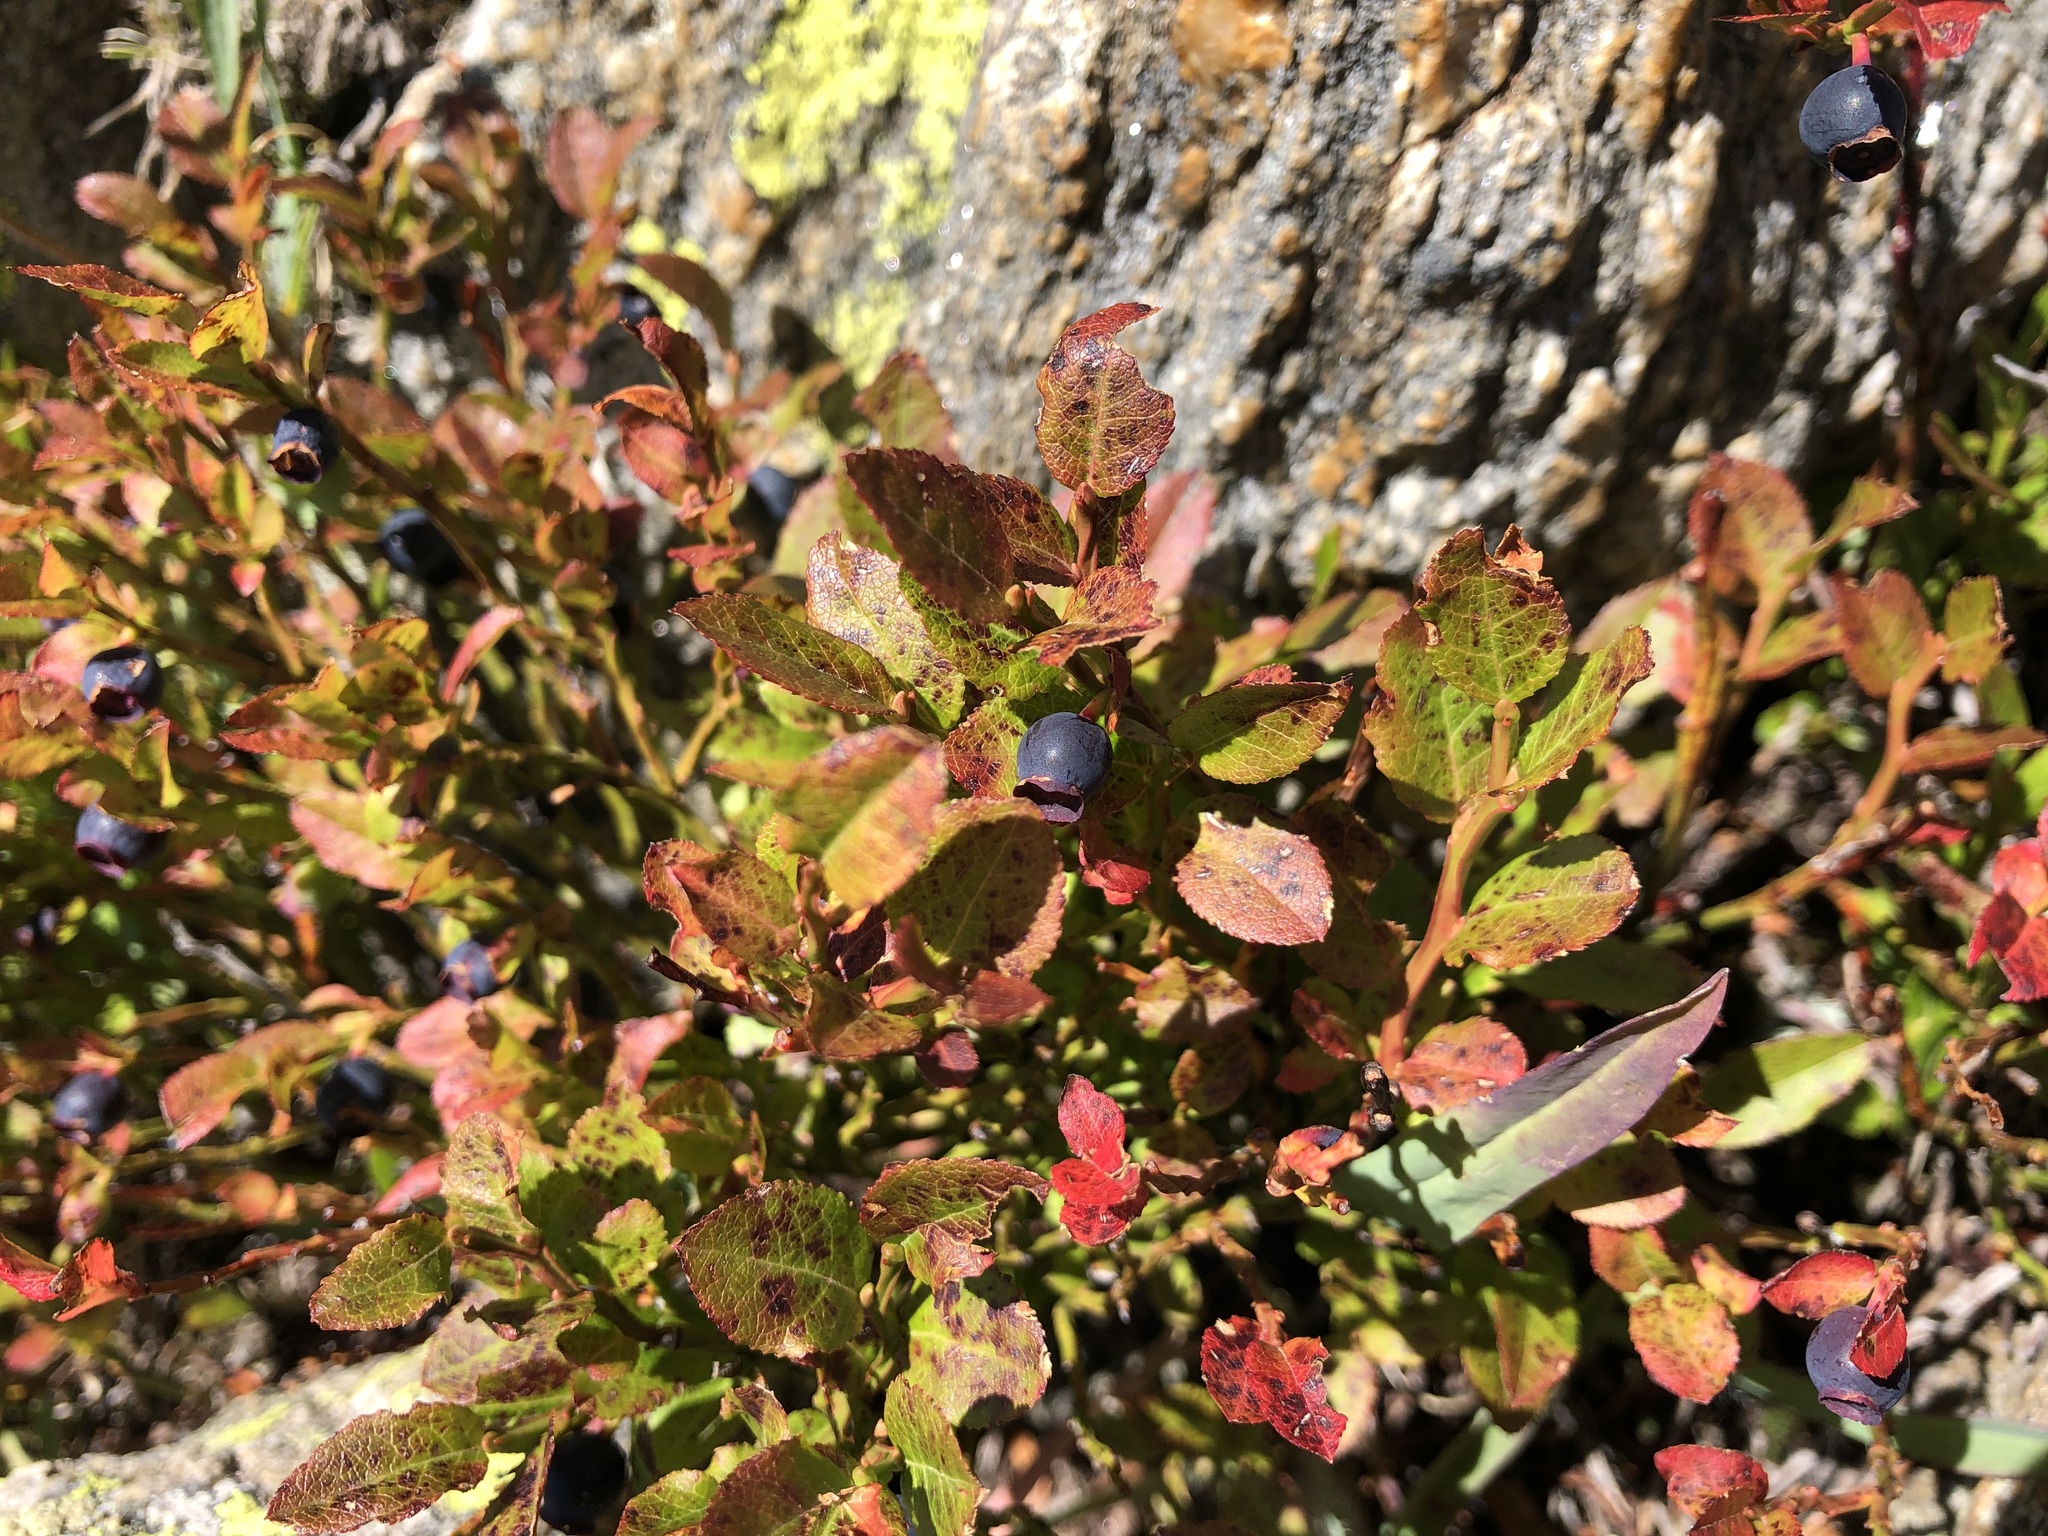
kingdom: Plantae
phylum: Tracheophyta
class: Magnoliopsida
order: Ericales
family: Ericaceae
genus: Vaccinium
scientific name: Vaccinium myrtillus
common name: Bilberry
